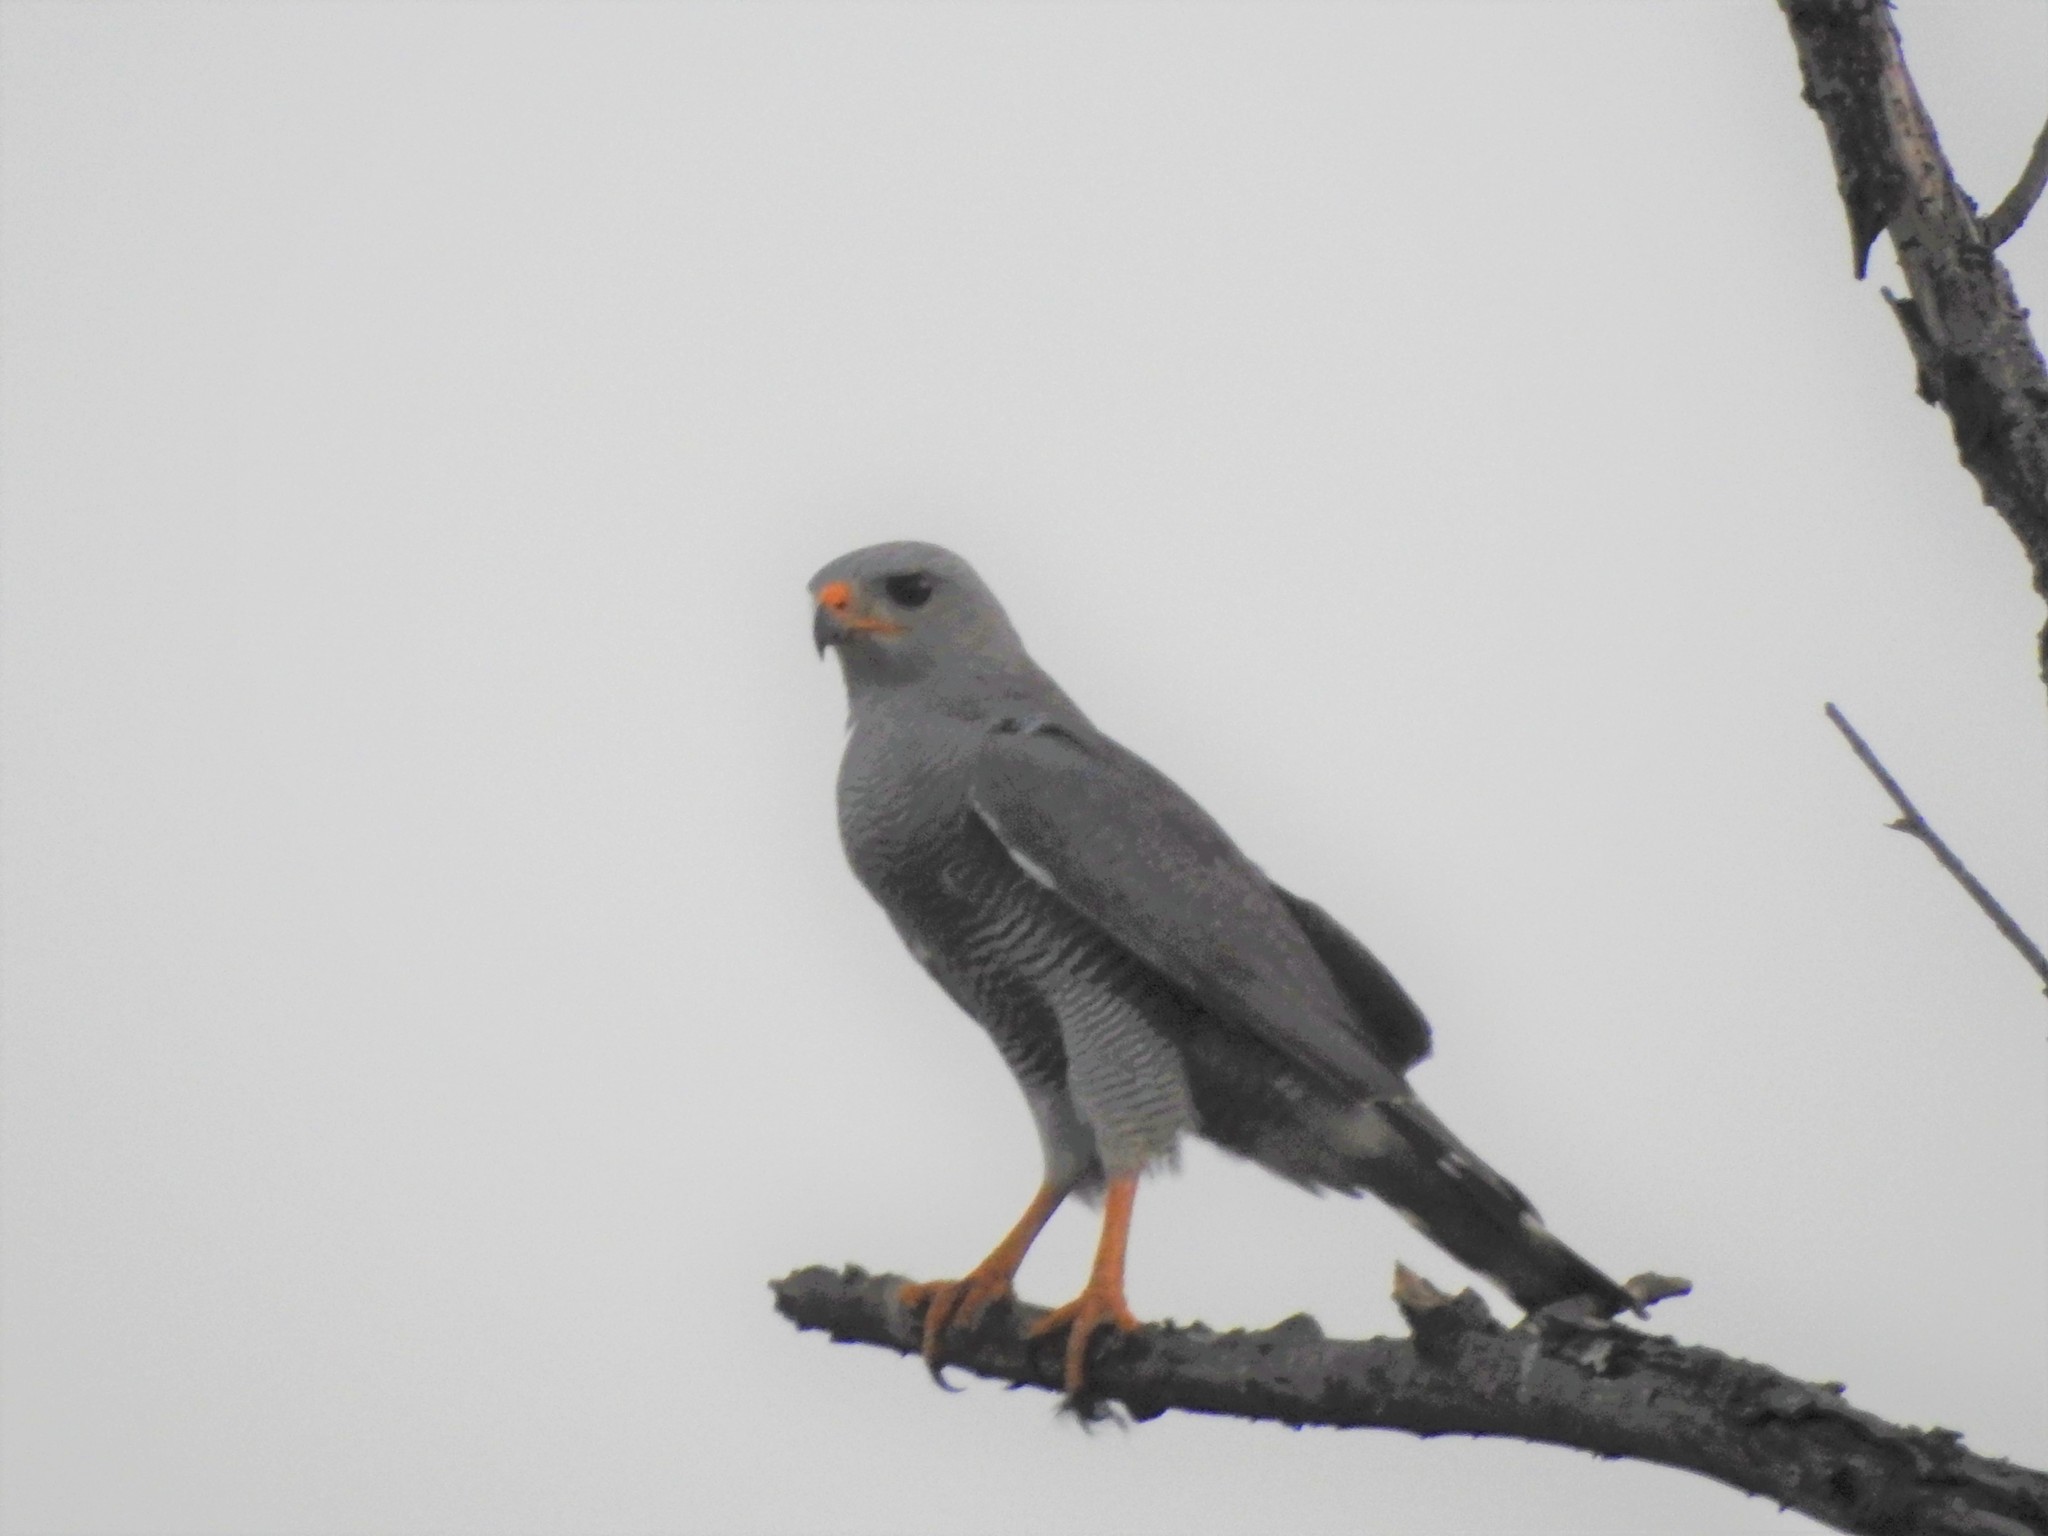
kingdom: Animalia
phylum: Chordata
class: Aves
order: Accipitriformes
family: Accipitridae
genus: Buteo
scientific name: Buteo nitidus
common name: Grey-lined hawk
